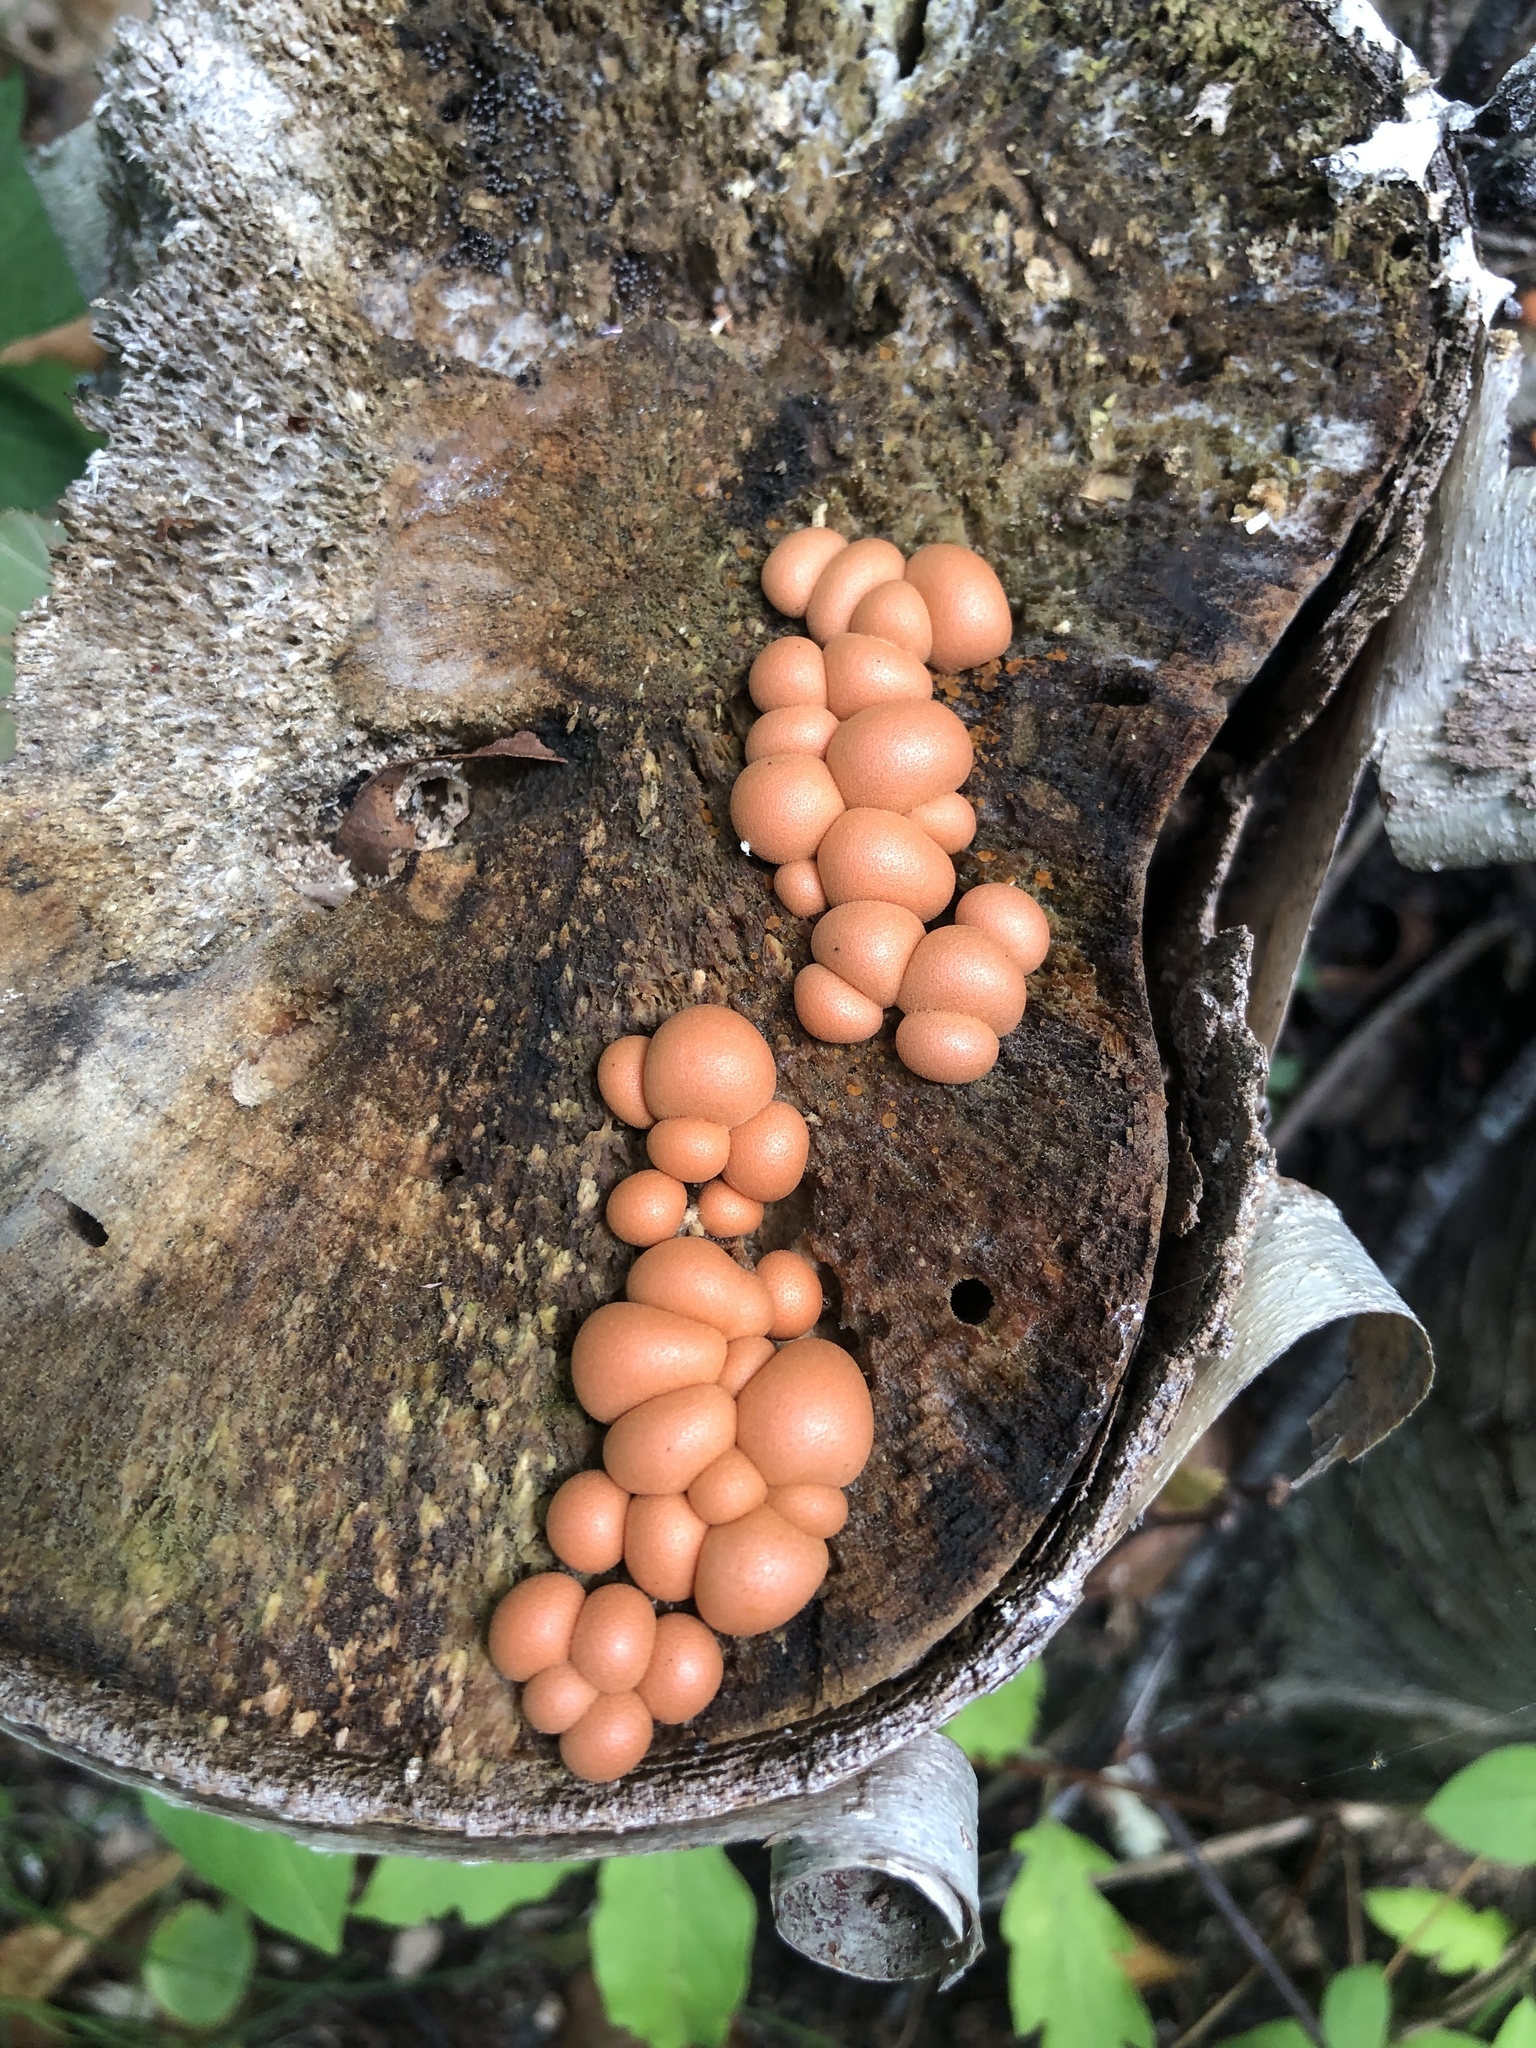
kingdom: Protozoa
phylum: Mycetozoa
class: Myxomycetes
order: Cribrariales
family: Tubiferaceae
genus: Lycogala
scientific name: Lycogala epidendrum
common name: Wolf's milk
